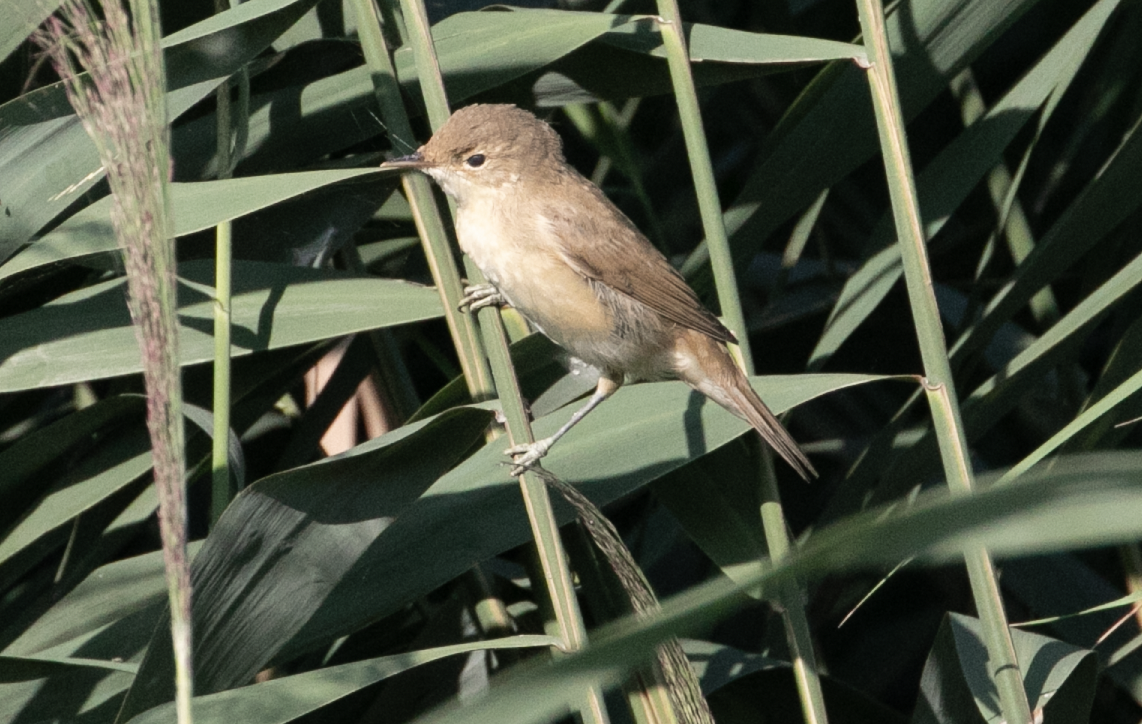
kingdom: Animalia
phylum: Chordata
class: Aves
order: Passeriformes
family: Acrocephalidae
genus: Acrocephalus
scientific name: Acrocephalus scirpaceus
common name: Eurasian reed warbler
